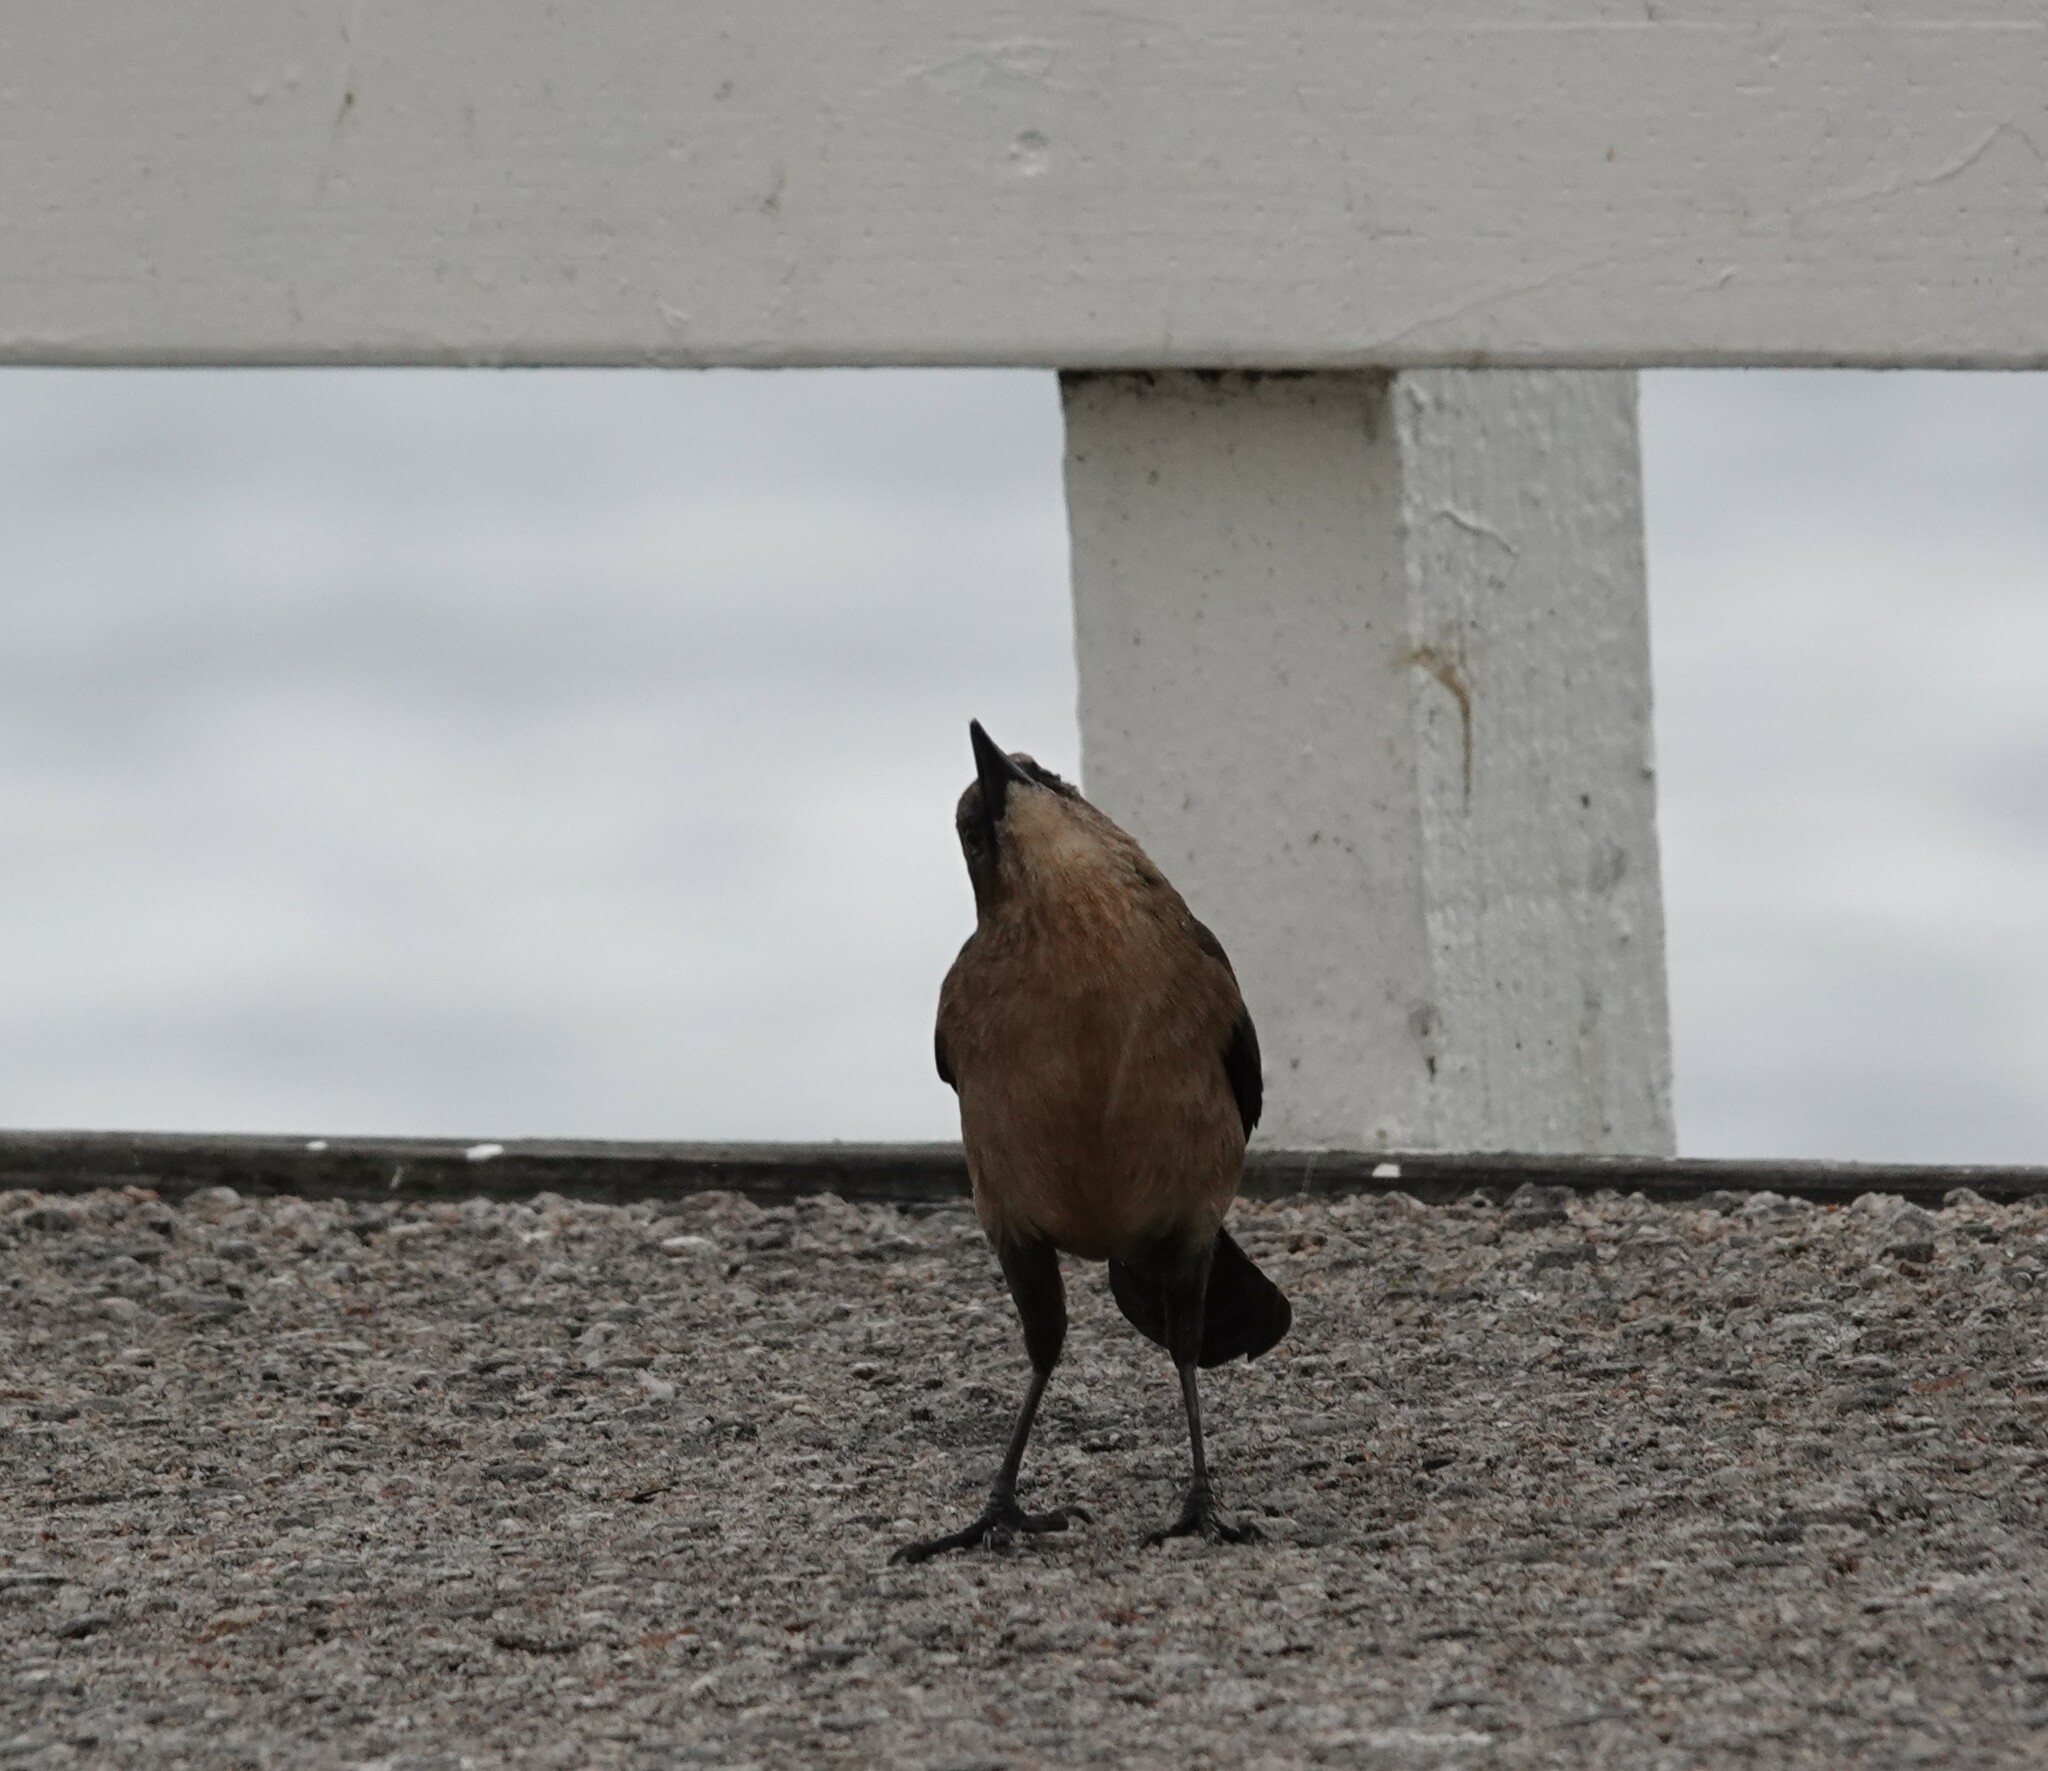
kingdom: Animalia
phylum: Chordata
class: Aves
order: Passeriformes
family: Icteridae
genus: Quiscalus
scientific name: Quiscalus mexicanus
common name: Great-tailed grackle
